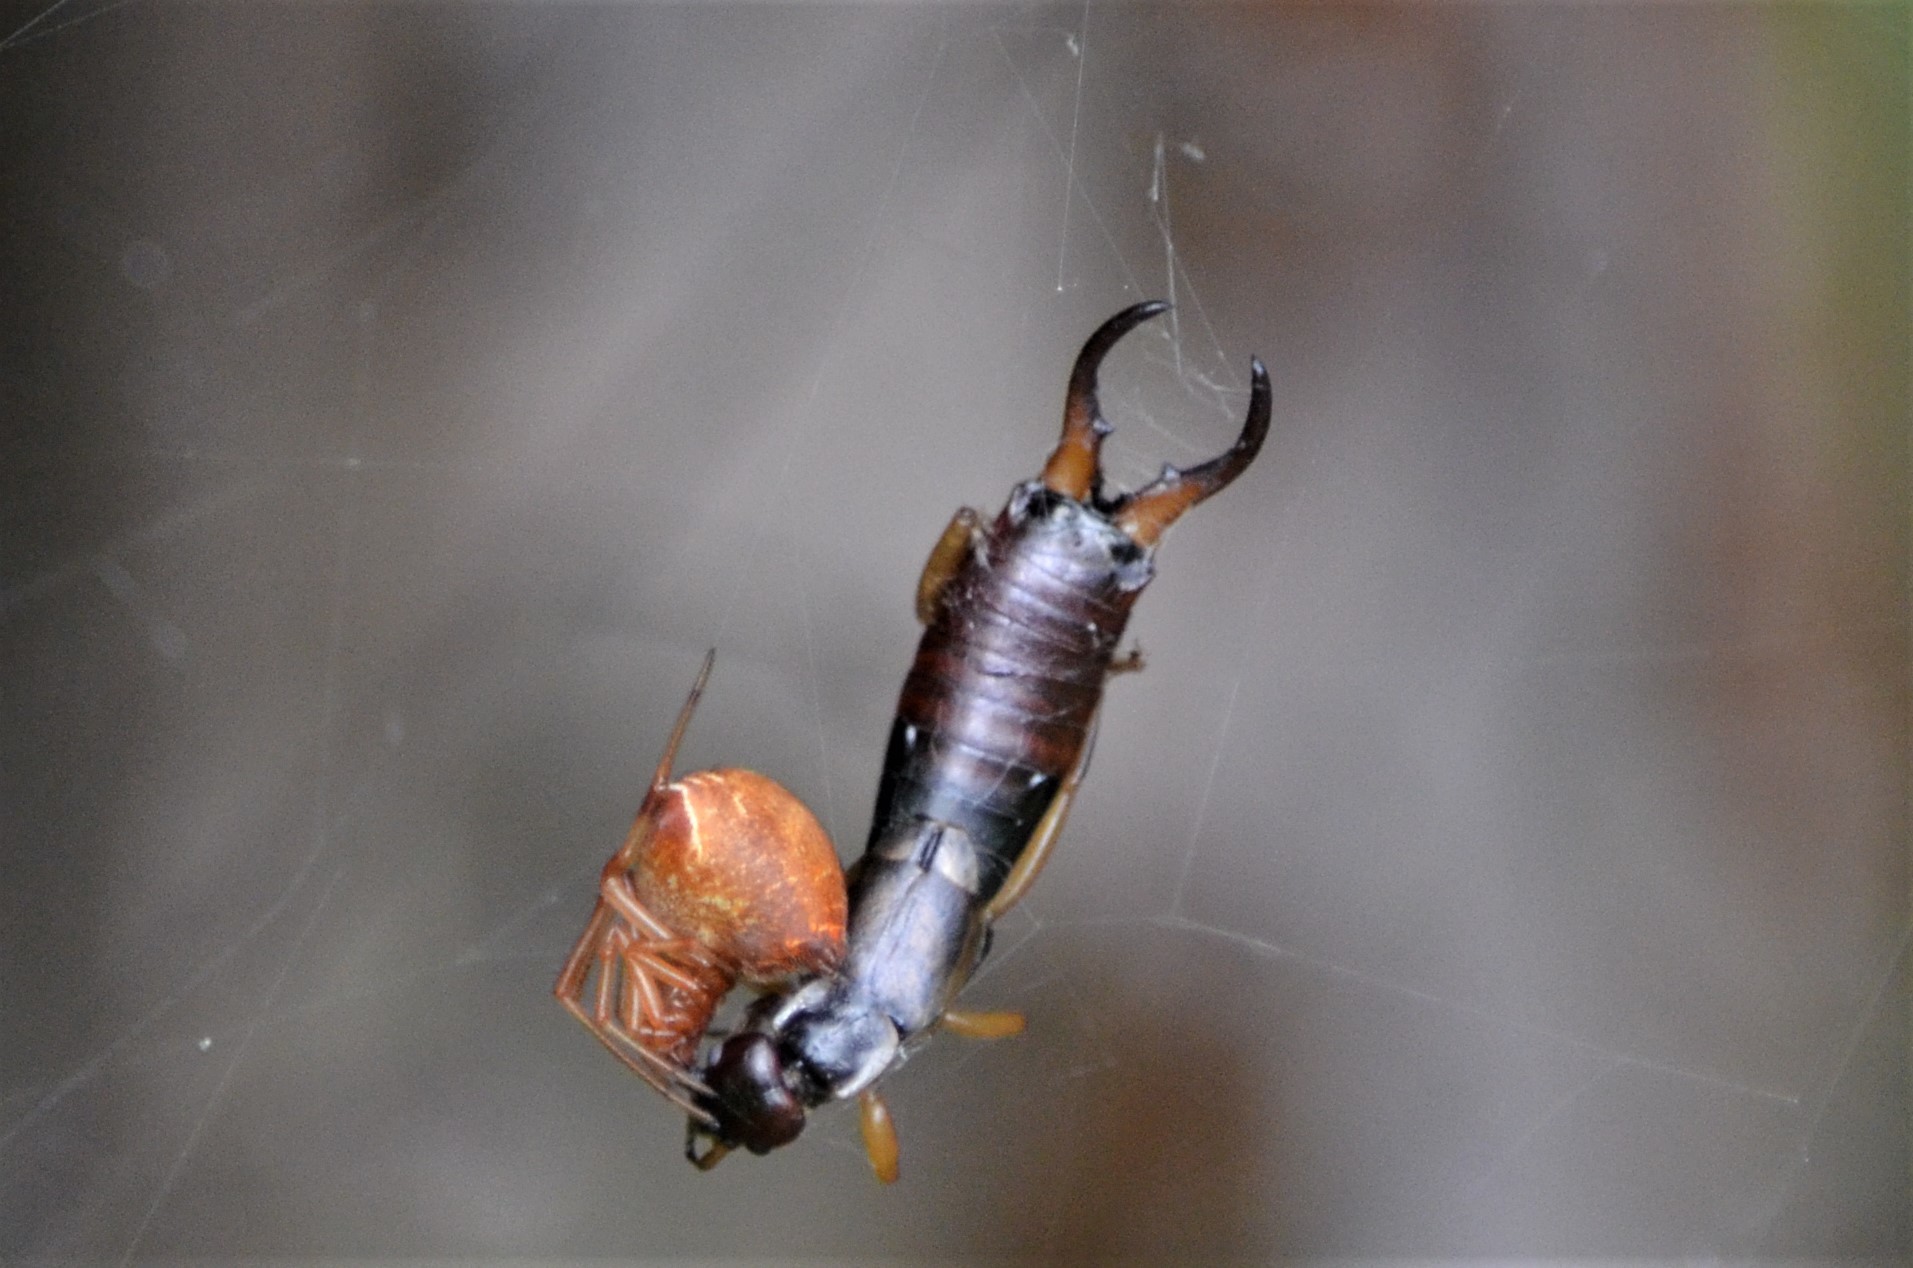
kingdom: Animalia
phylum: Arthropoda
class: Insecta
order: Dermaptera
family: Forficulidae
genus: Forficula
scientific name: Forficula
